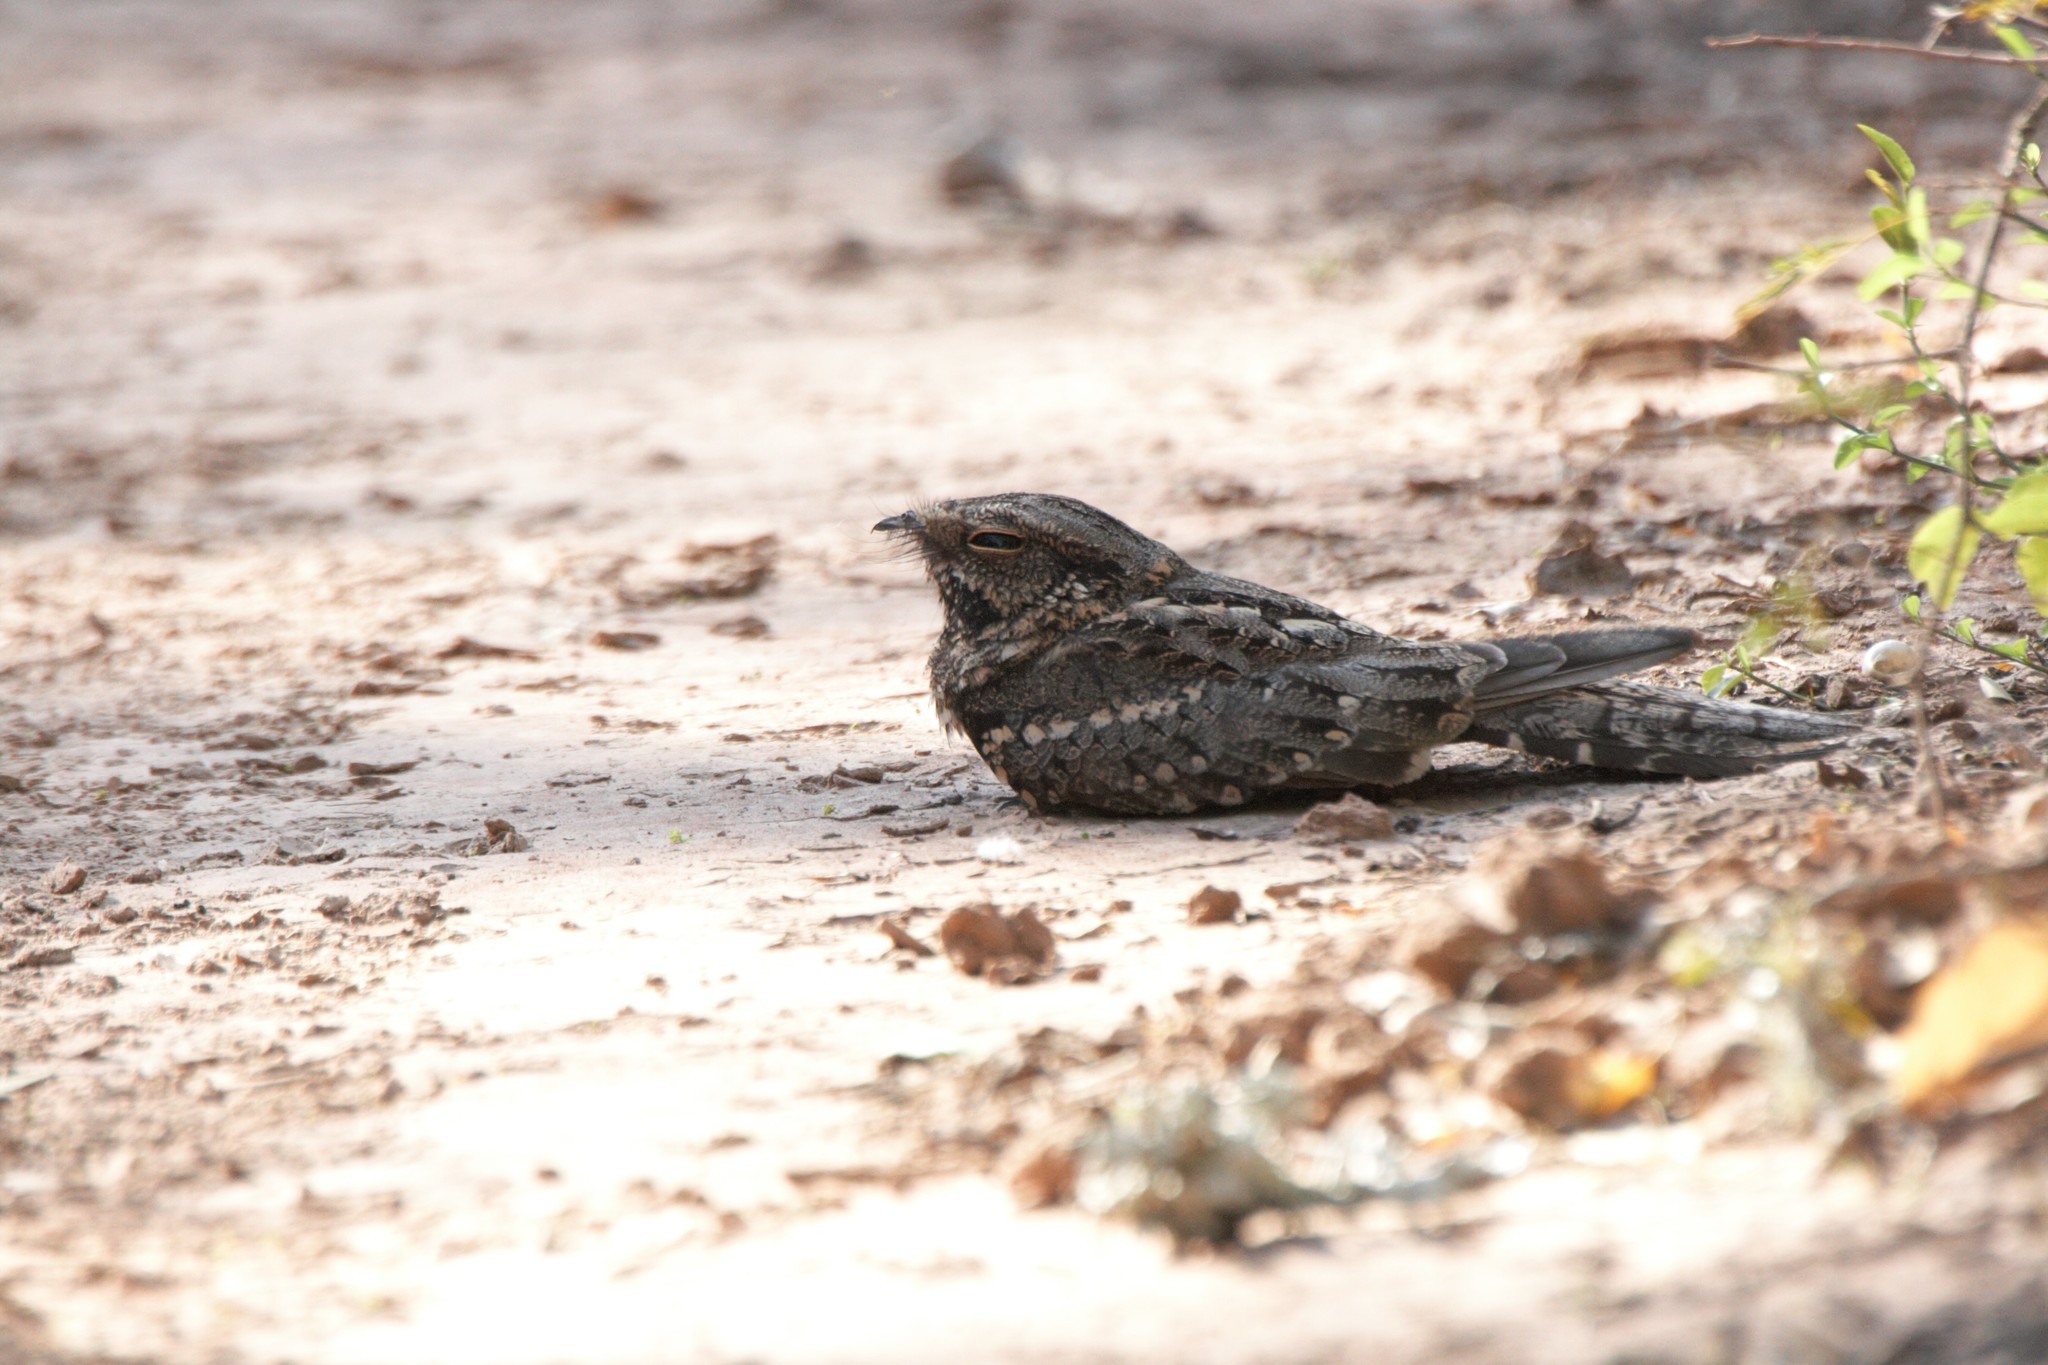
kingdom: Animalia
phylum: Chordata
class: Aves
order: Caprimulgiformes
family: Caprimulgidae
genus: Hydropsalis
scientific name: Hydropsalis torquata
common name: Scissor-tailed nightjar
